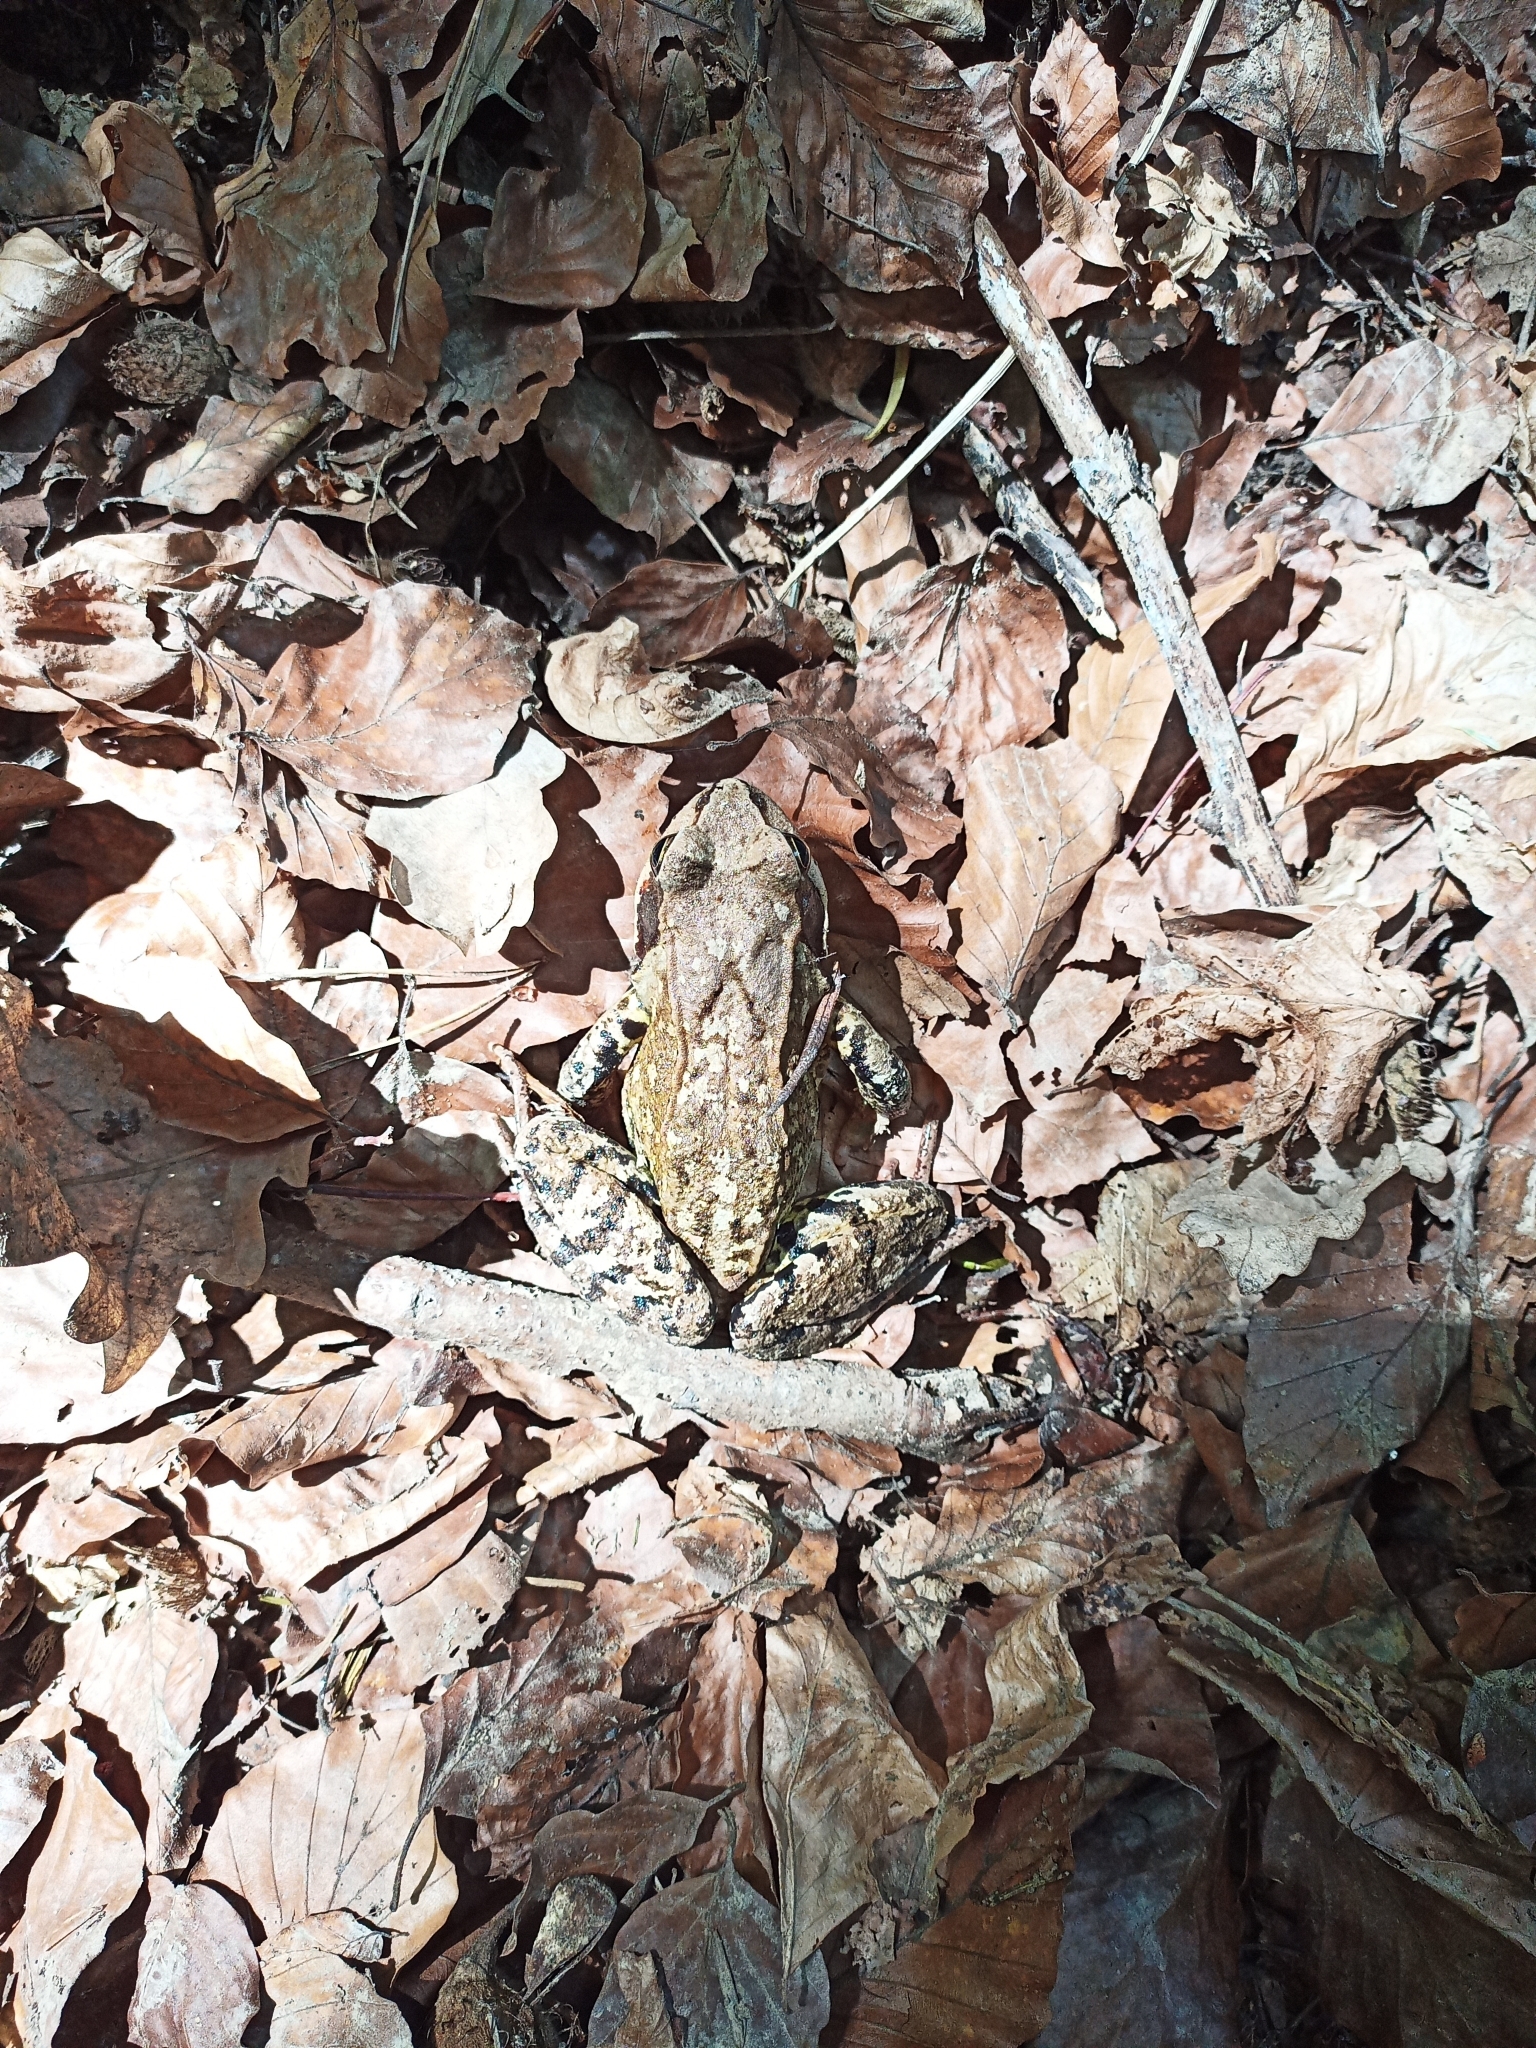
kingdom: Animalia
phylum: Chordata
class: Amphibia
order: Anura
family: Ranidae
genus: Rana
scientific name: Rana temporaria
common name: Common frog
